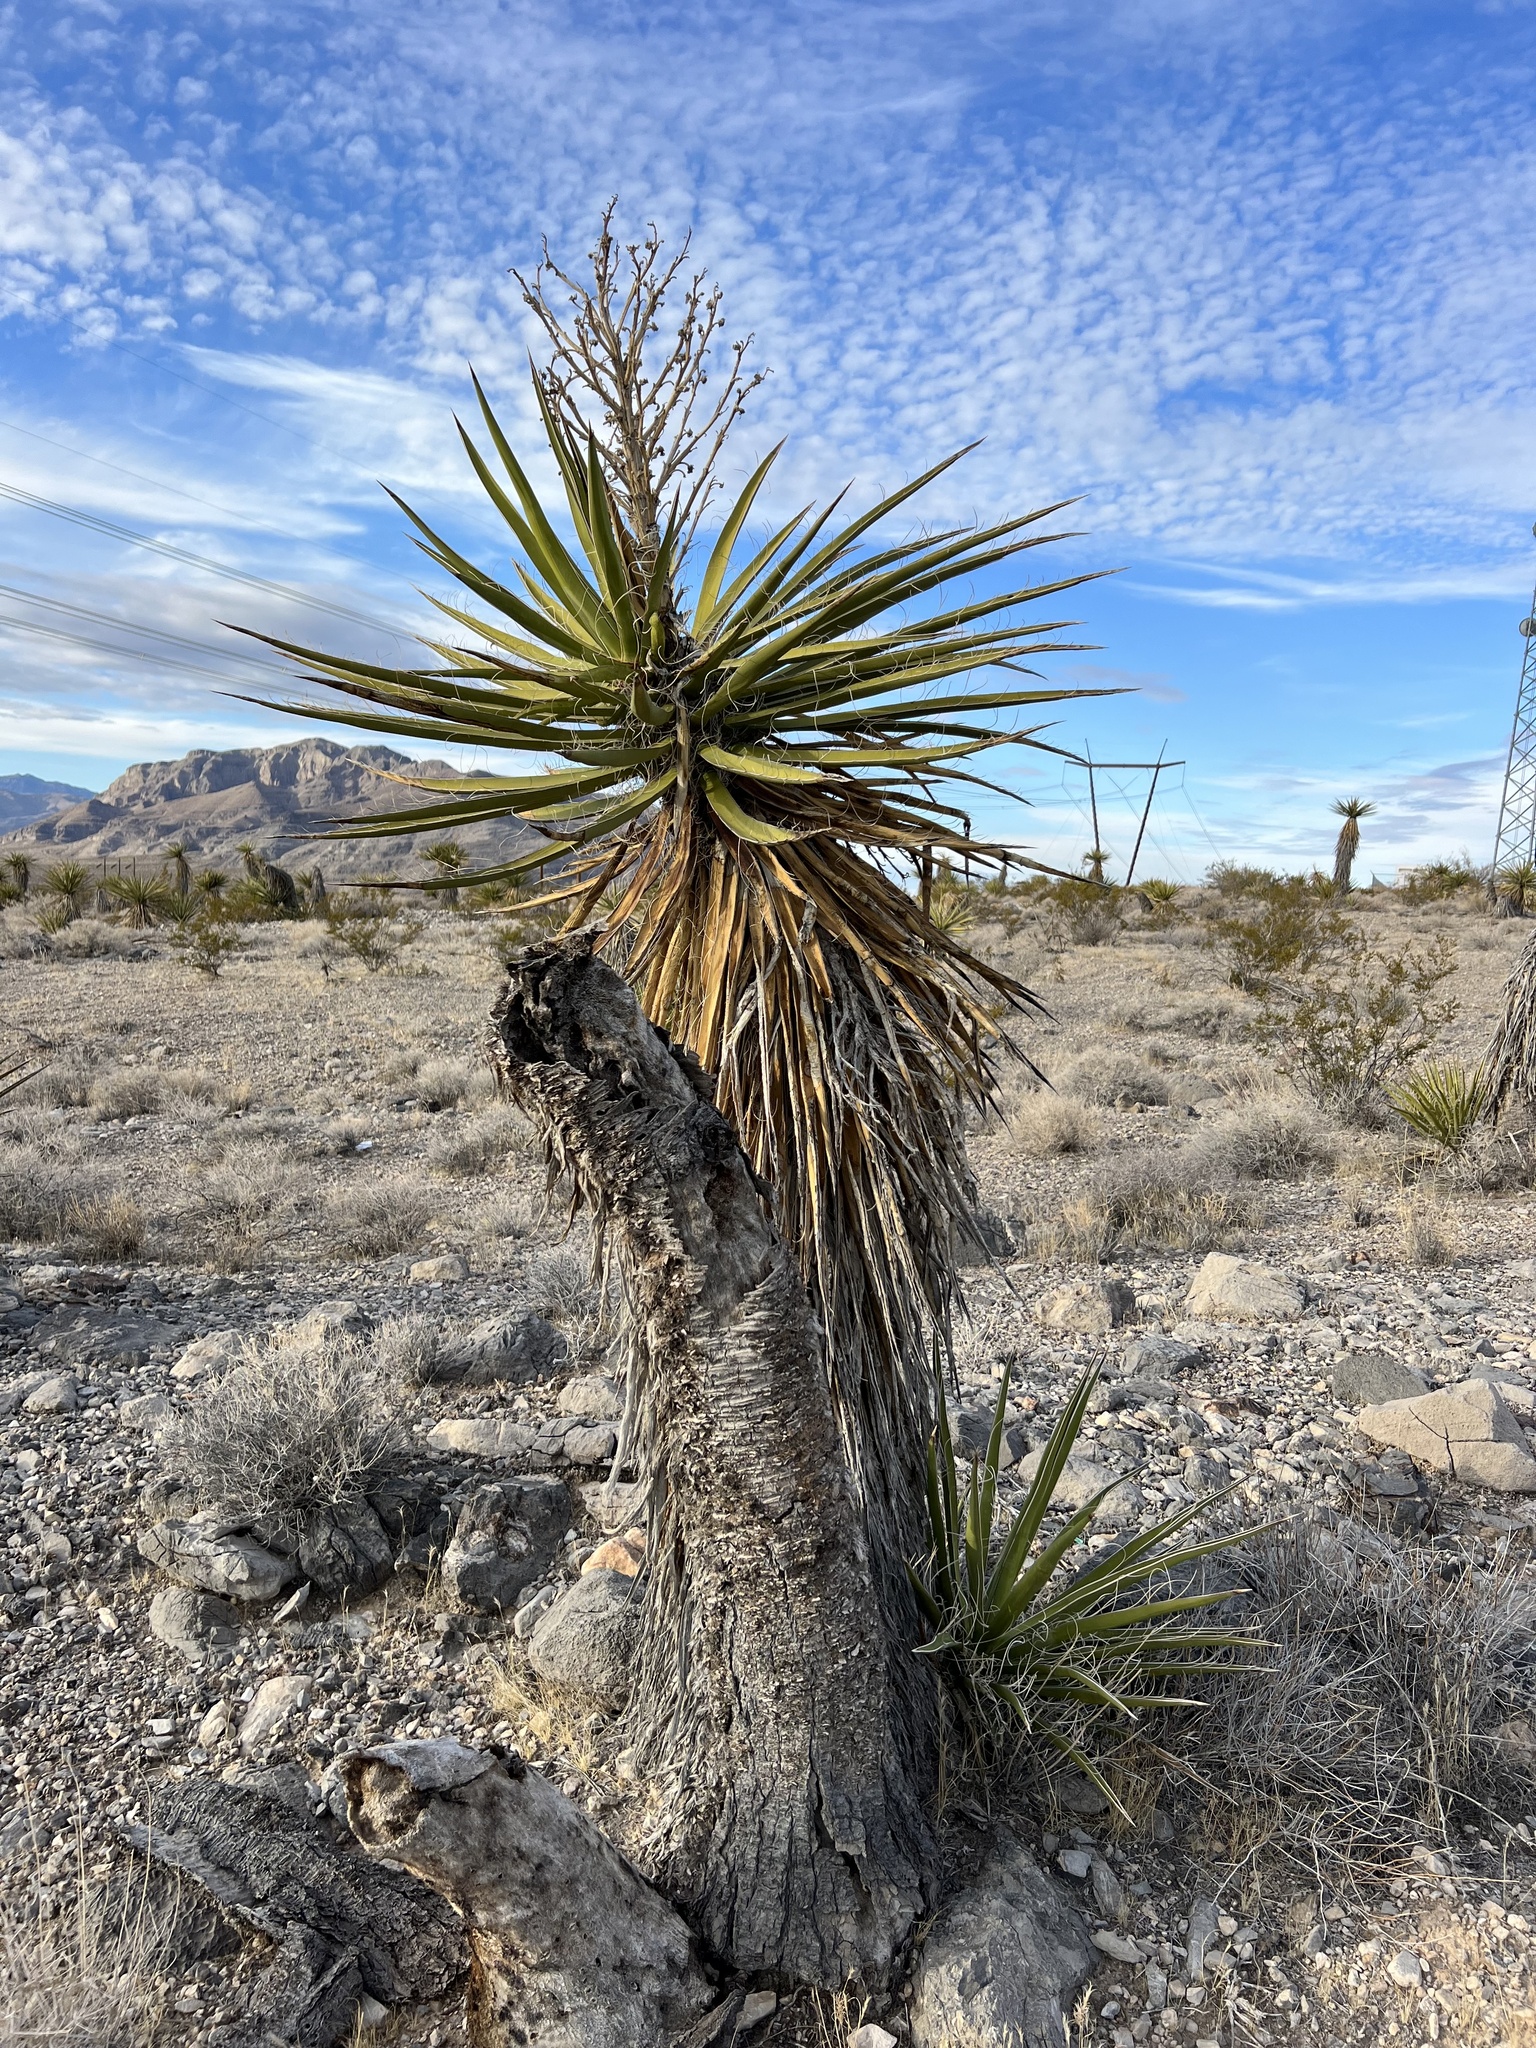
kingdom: Plantae
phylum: Tracheophyta
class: Liliopsida
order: Asparagales
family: Asparagaceae
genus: Yucca
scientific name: Yucca schidigera
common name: Mojave yucca
